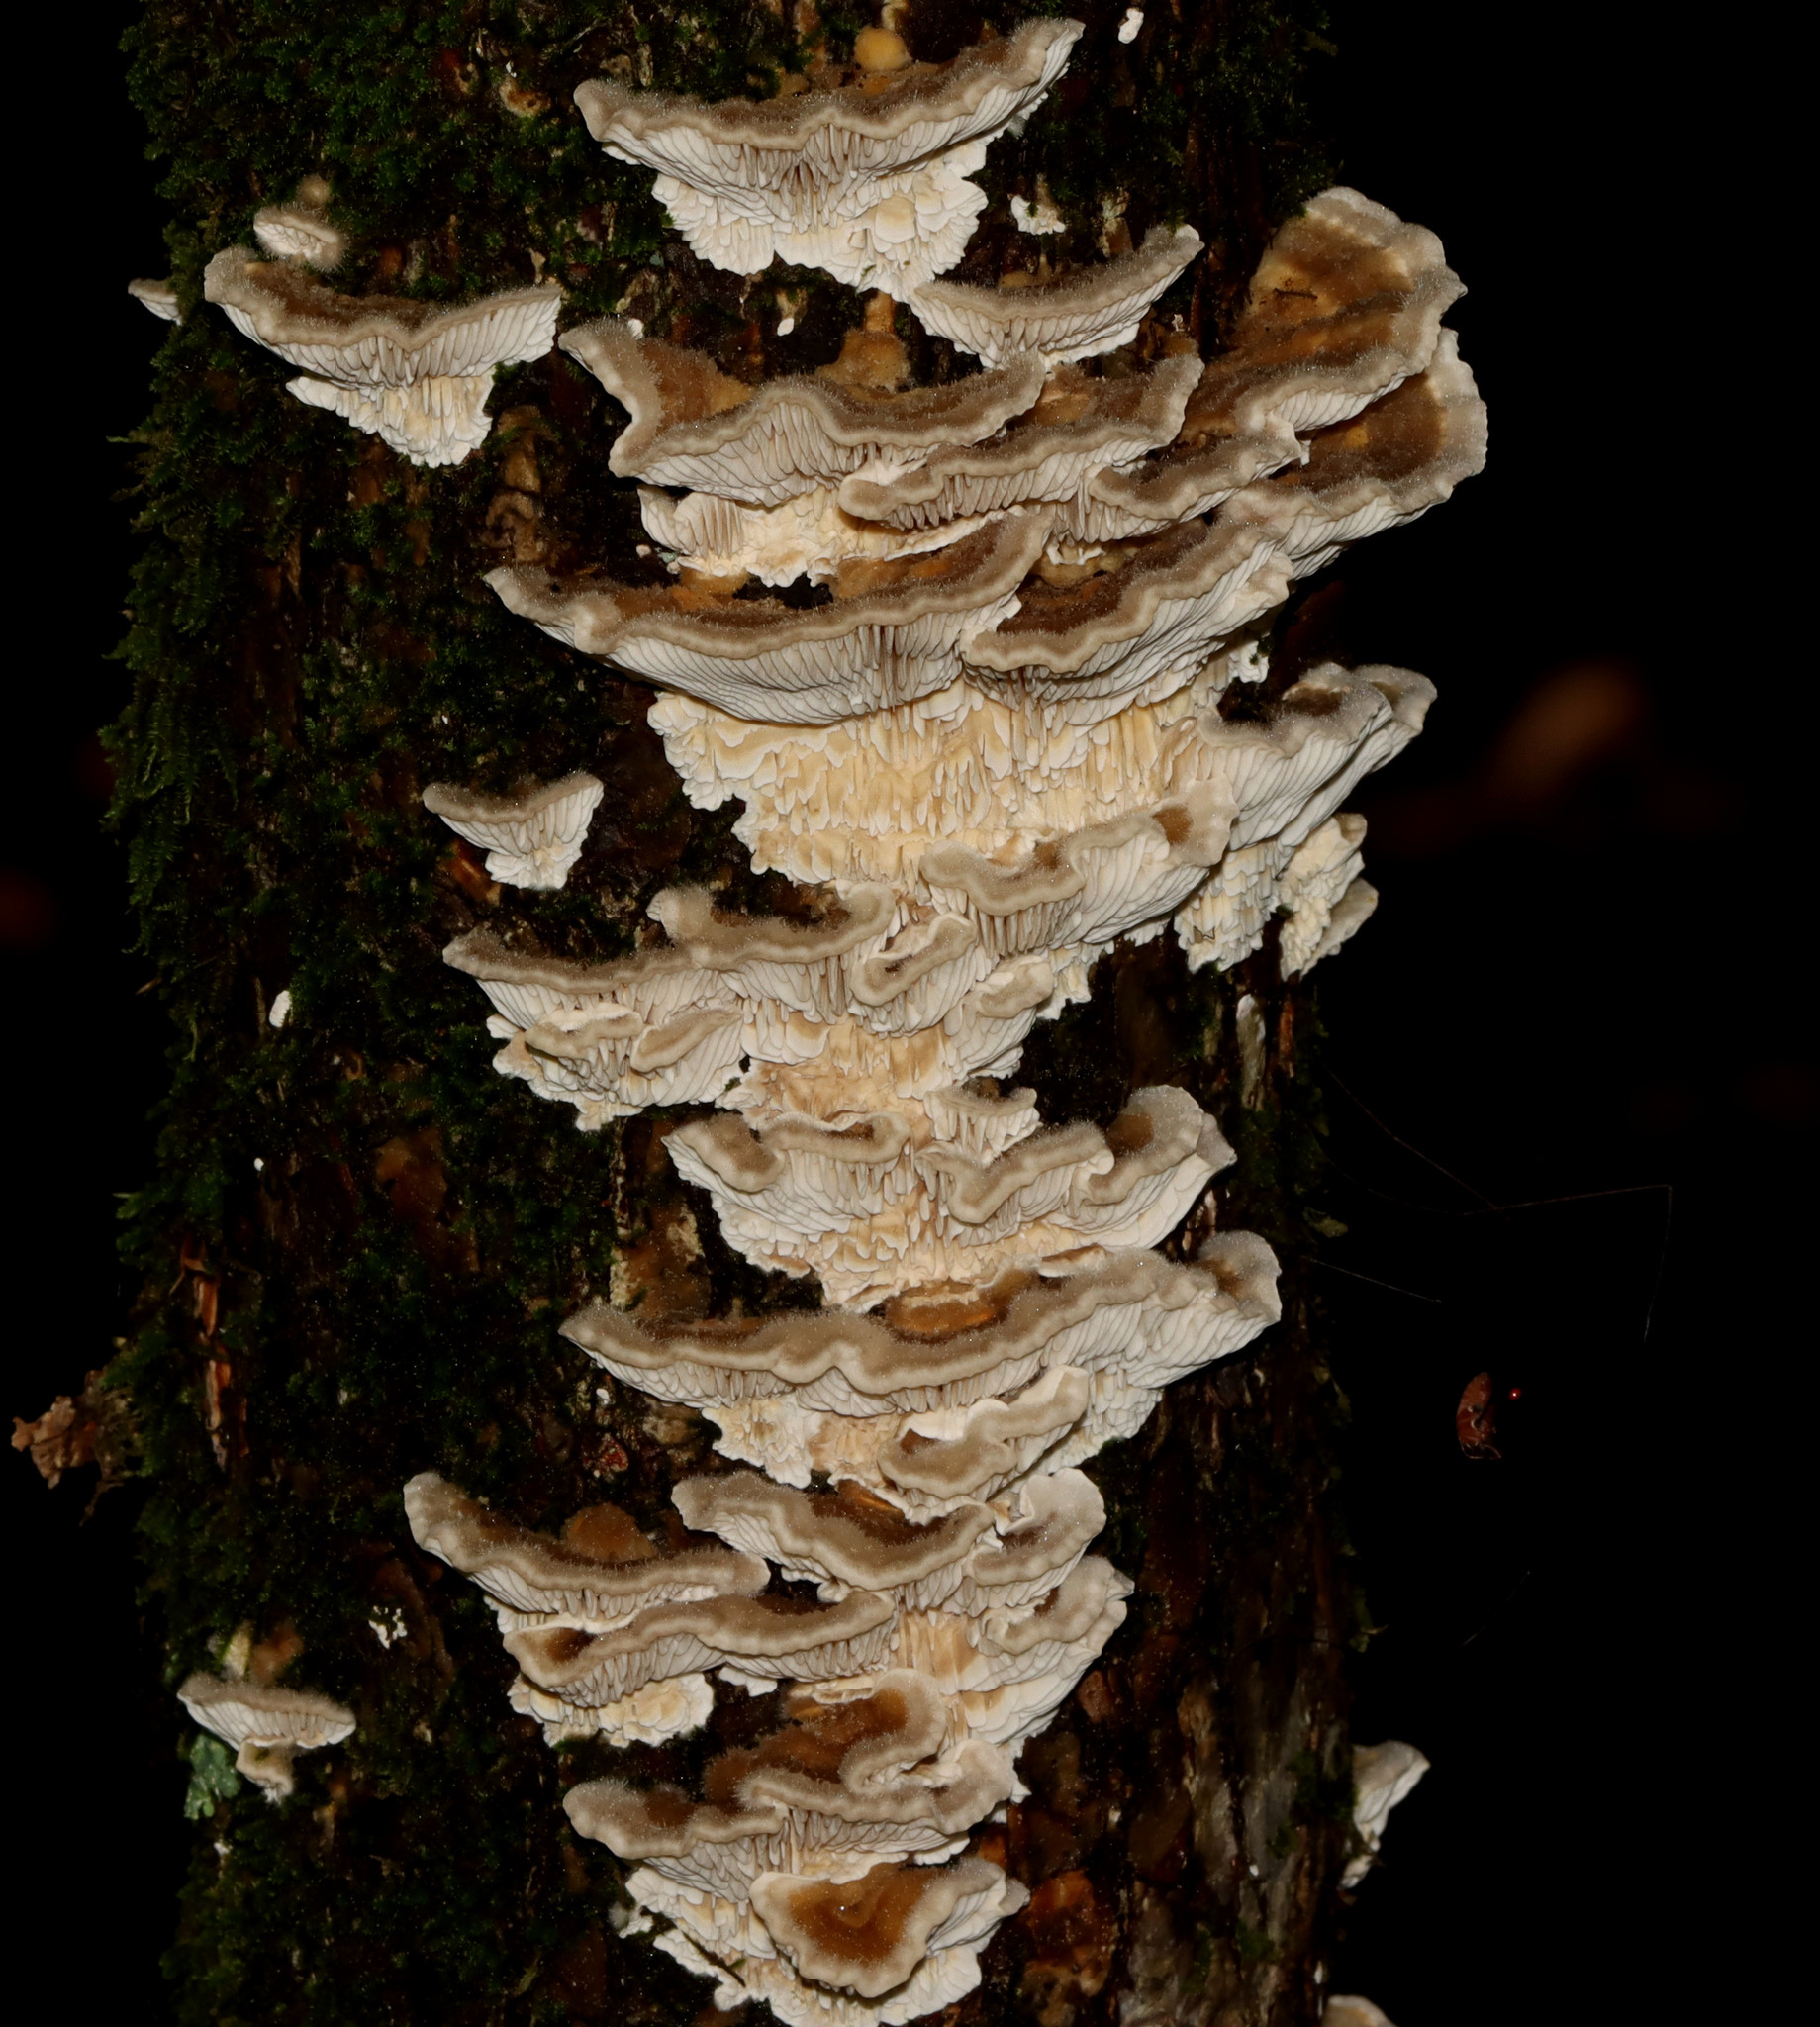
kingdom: Fungi
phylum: Basidiomycota
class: Agaricomycetes
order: Polyporales
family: Polyporaceae
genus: Lenzites
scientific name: Lenzites betulinus
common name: Birch mazegill
